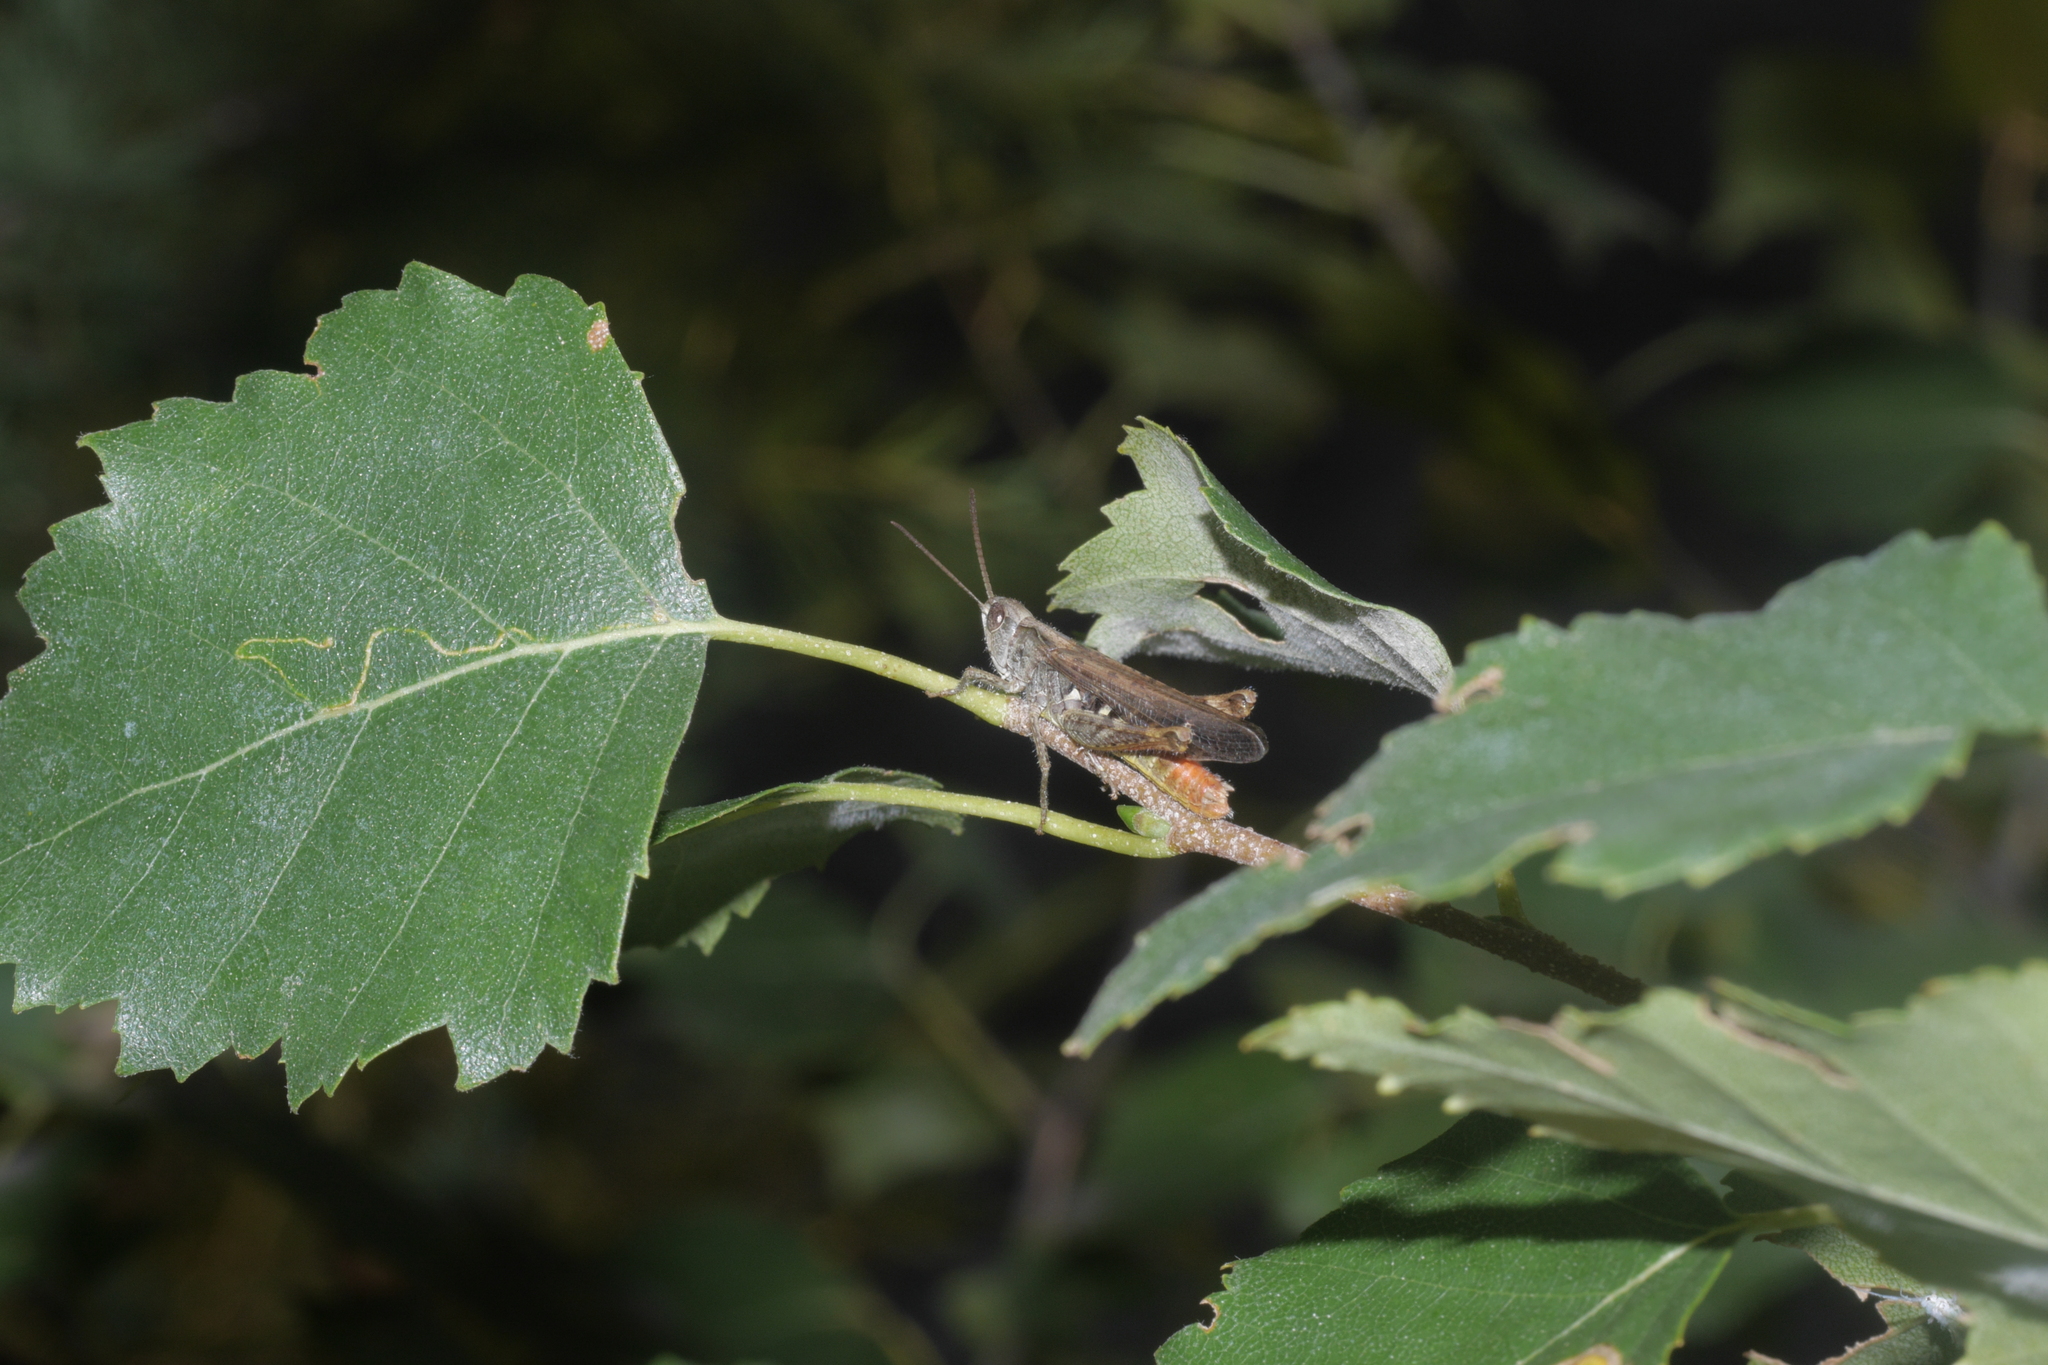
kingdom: Animalia
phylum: Arthropoda
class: Insecta
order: Orthoptera
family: Acrididae
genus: Chorthippus
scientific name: Chorthippus biguttulus
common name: Bow-winged grasshopper
